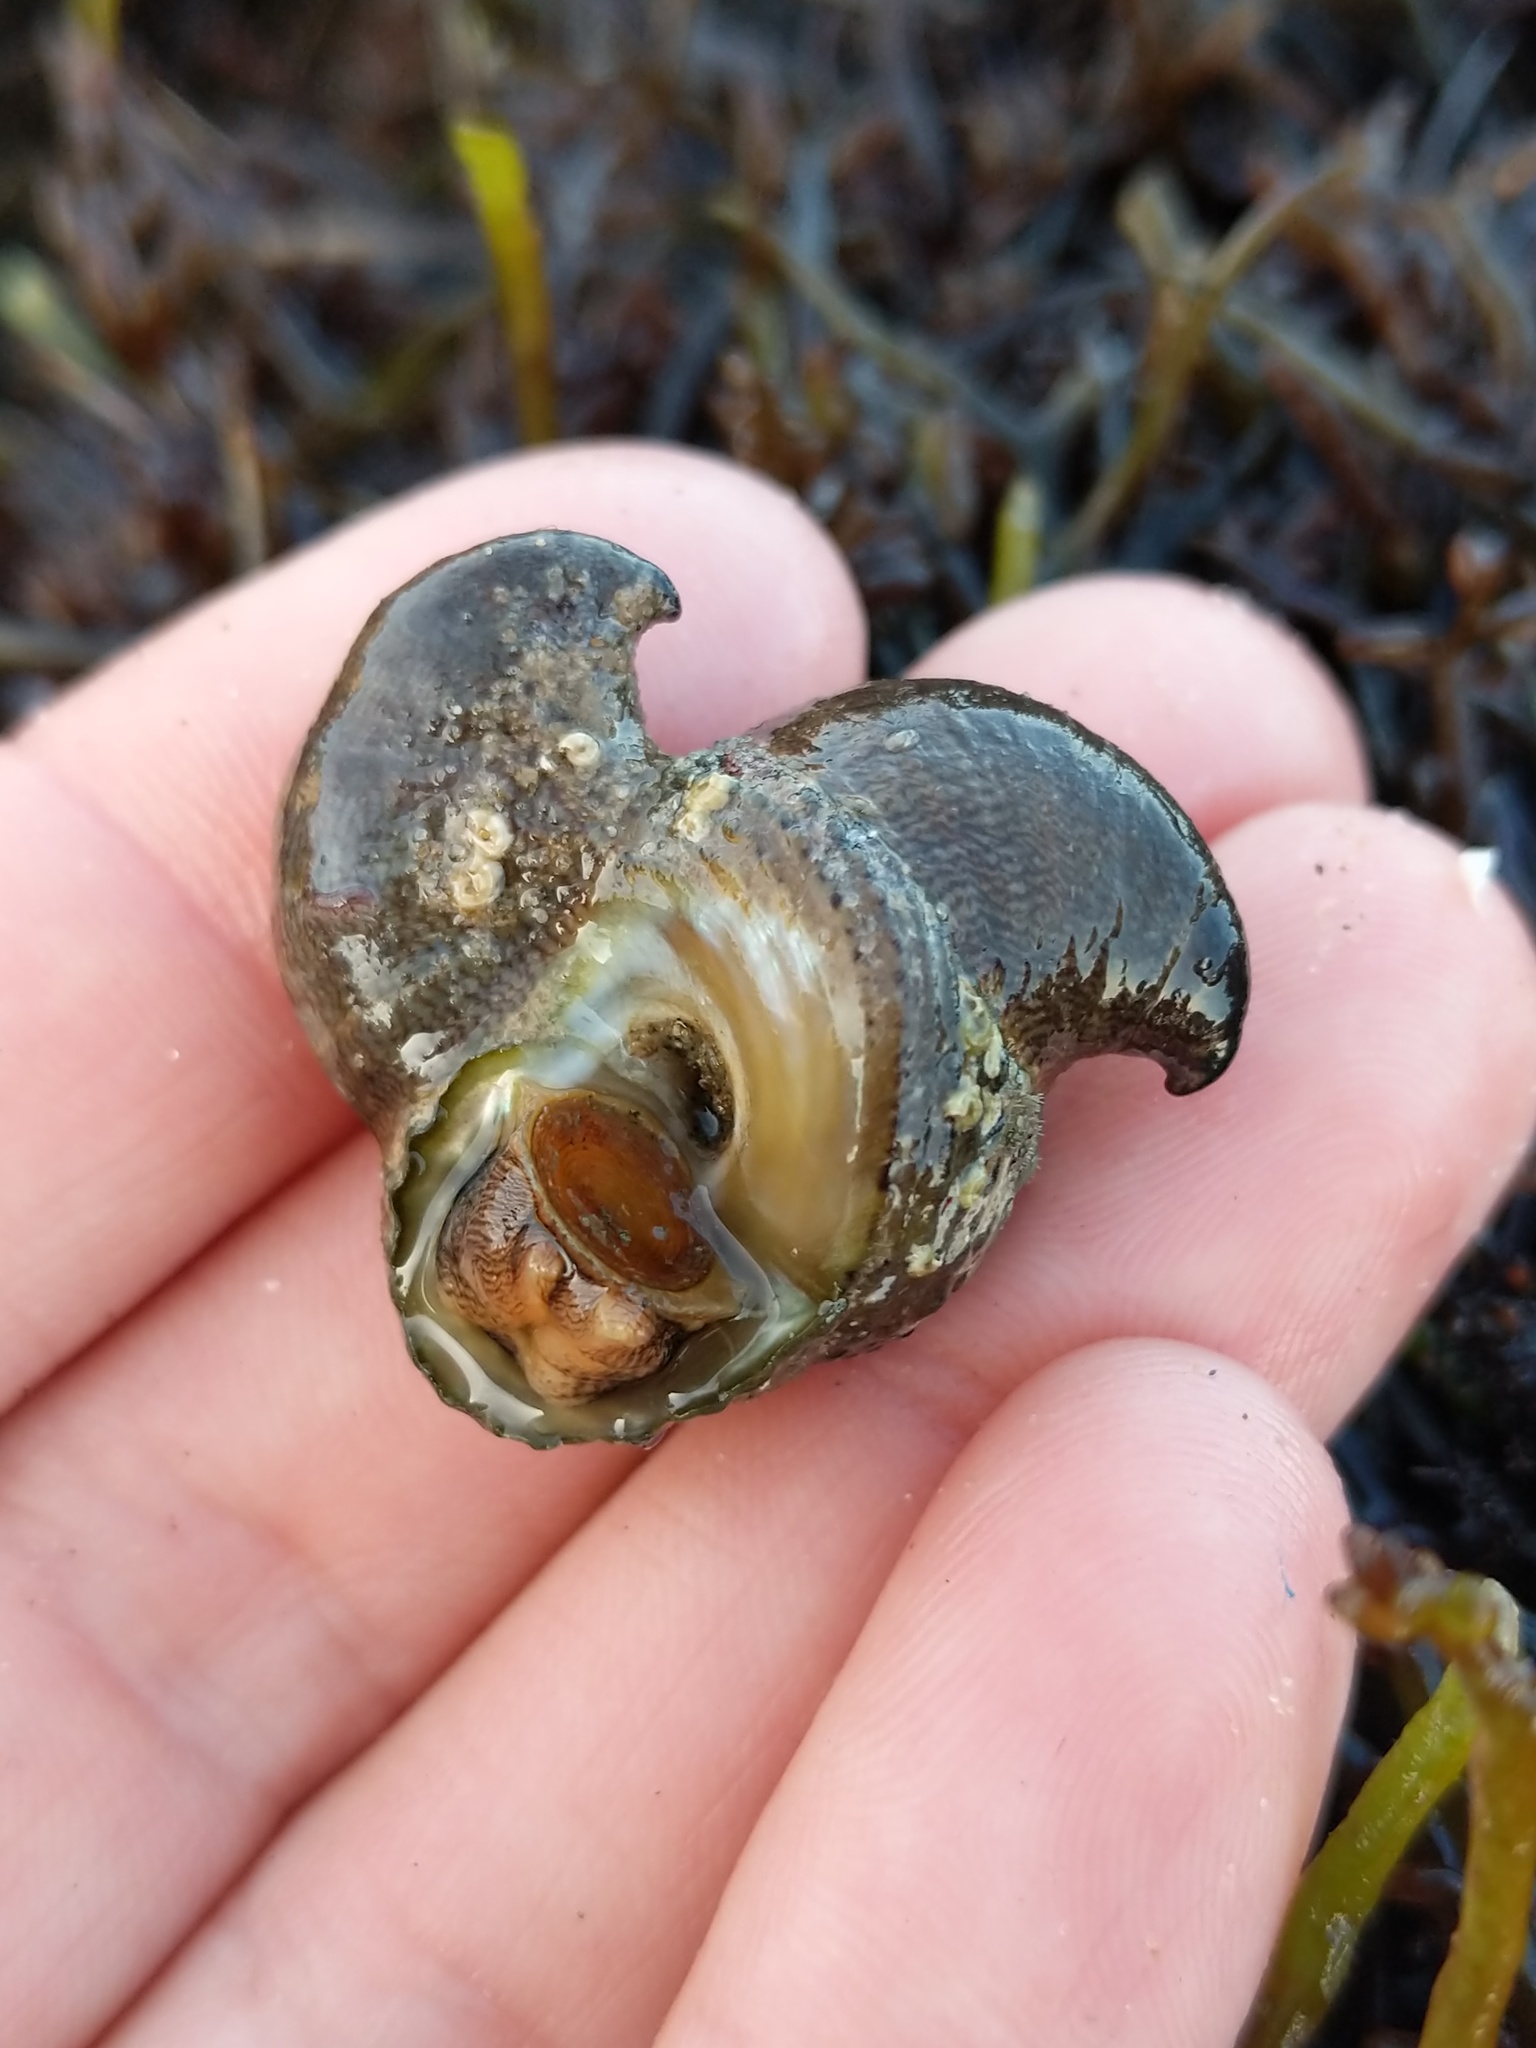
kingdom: Animalia
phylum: Mollusca
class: Gastropoda
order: Littorinimorpha
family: Calyptraeidae
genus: Crepidula
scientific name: Crepidula adunca
